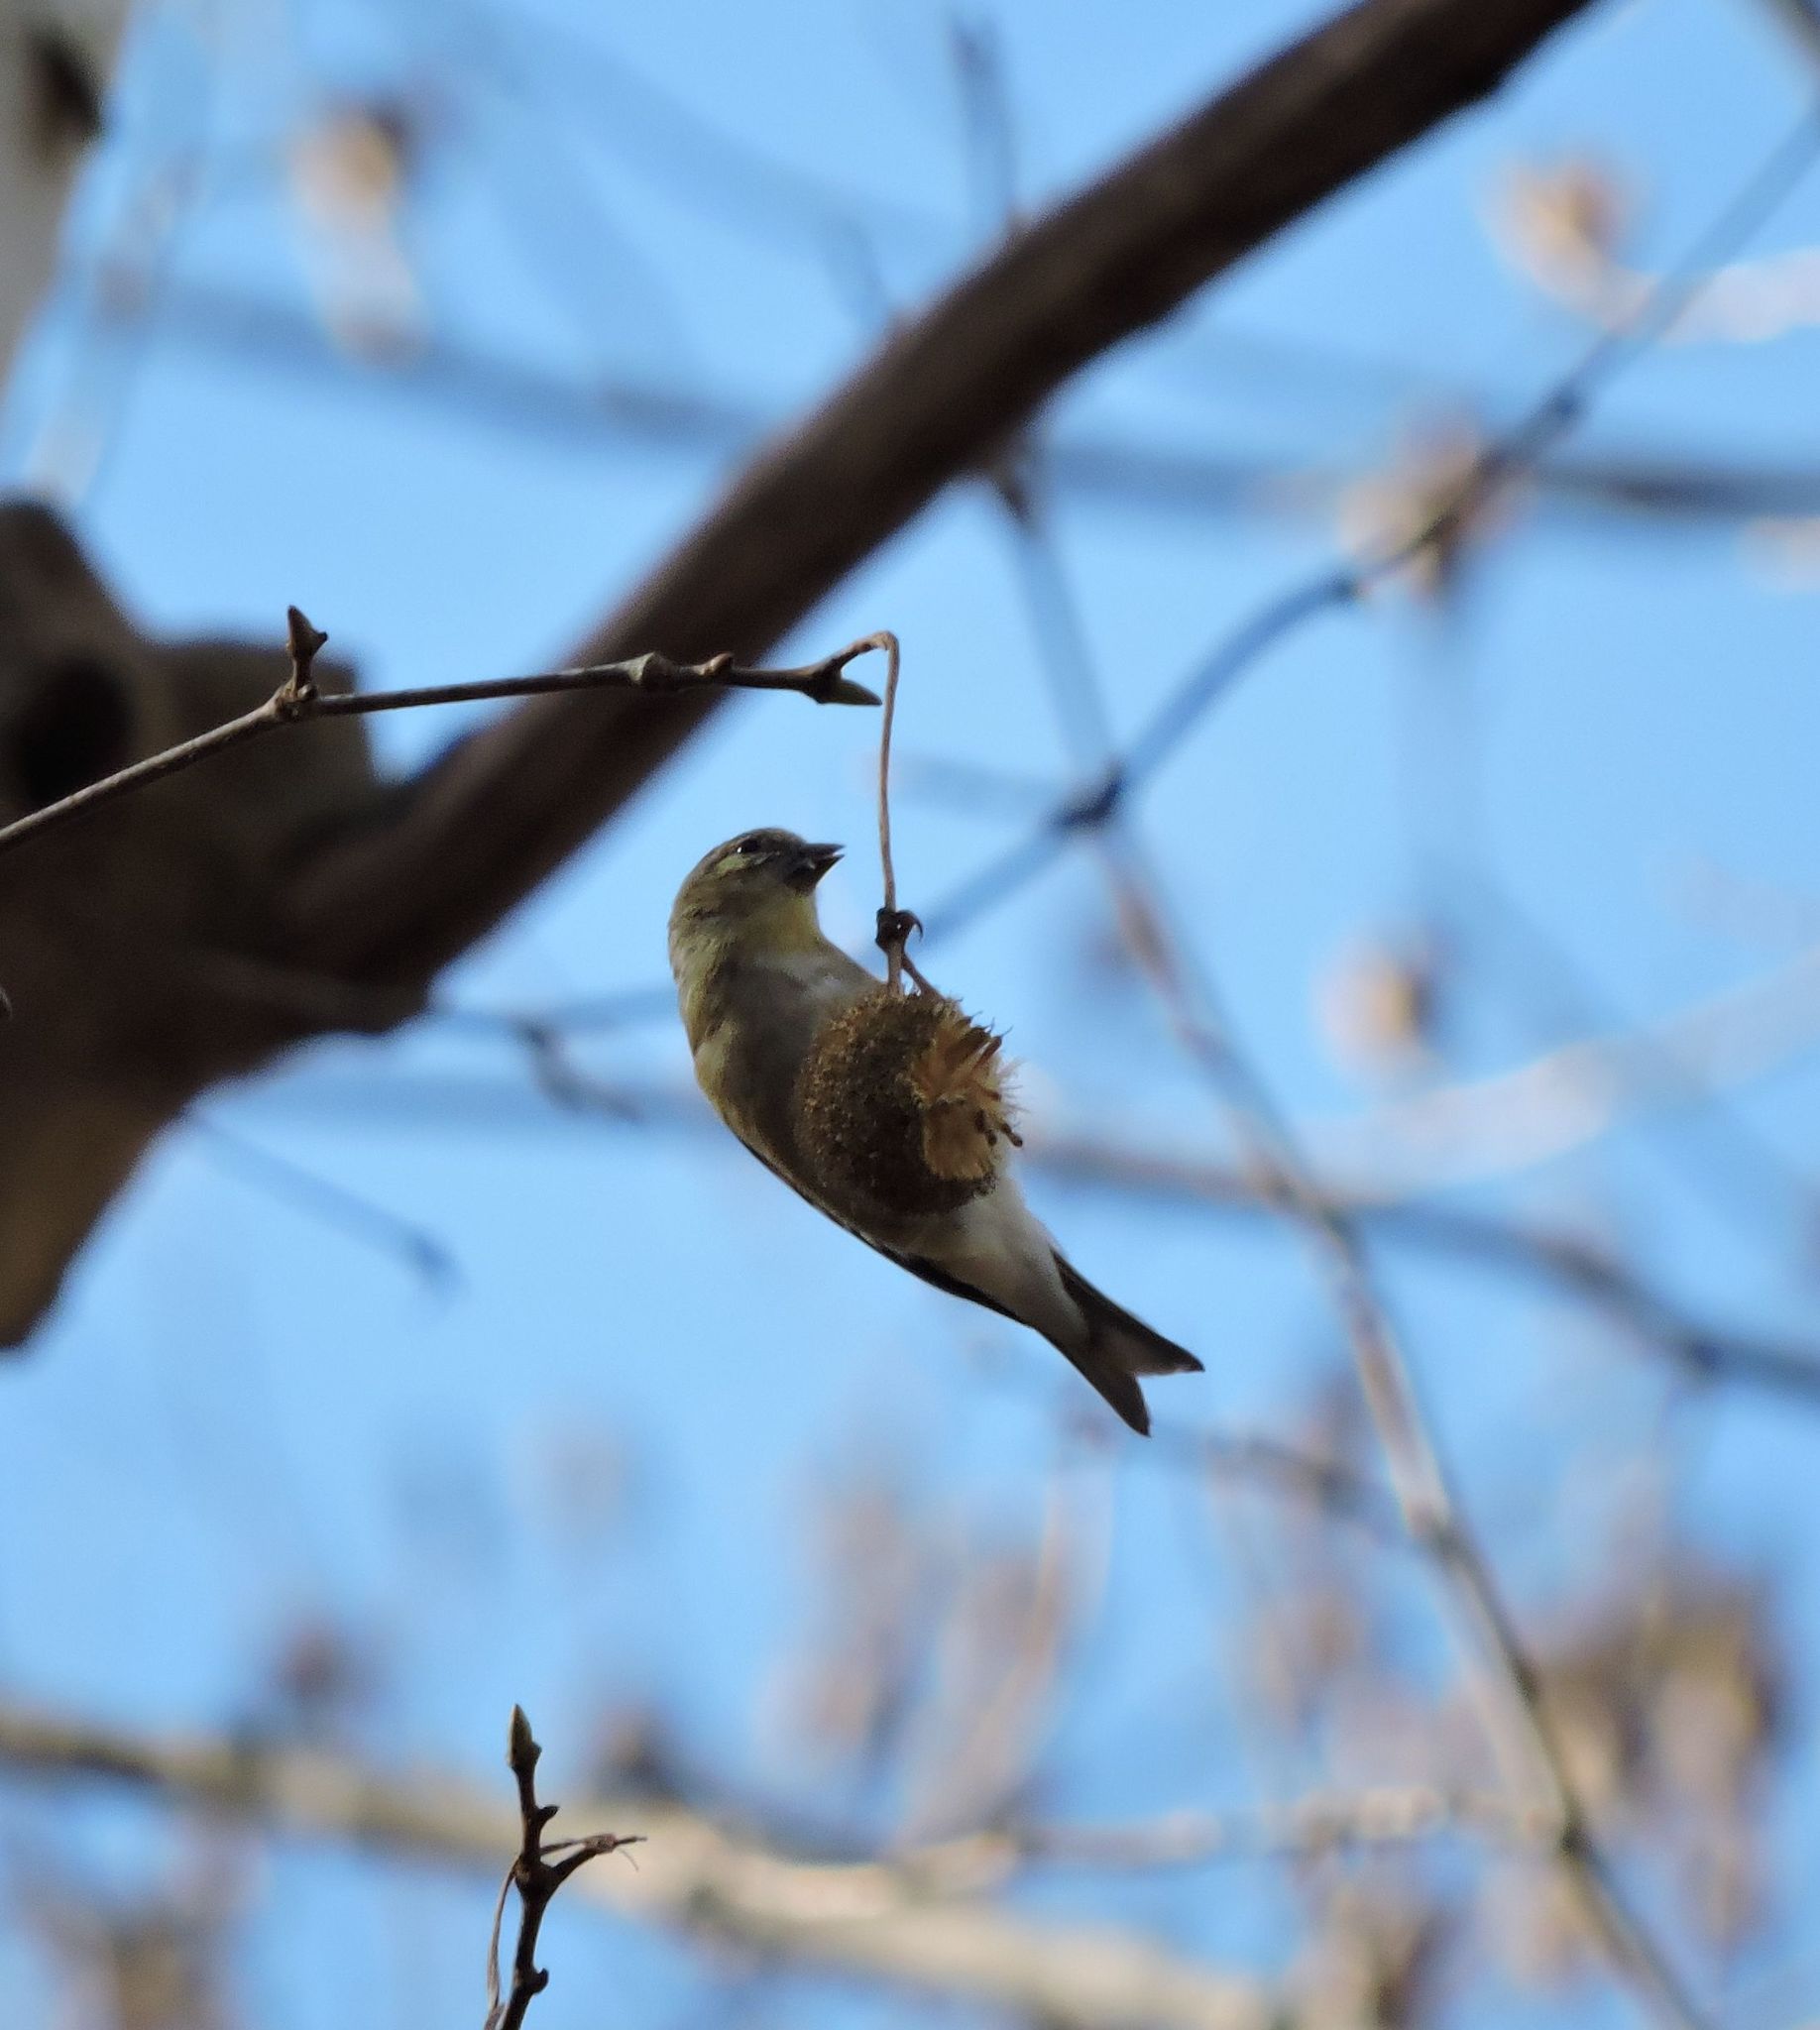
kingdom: Animalia
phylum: Chordata
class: Aves
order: Passeriformes
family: Fringillidae
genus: Spinus
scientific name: Spinus tristis
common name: American goldfinch
